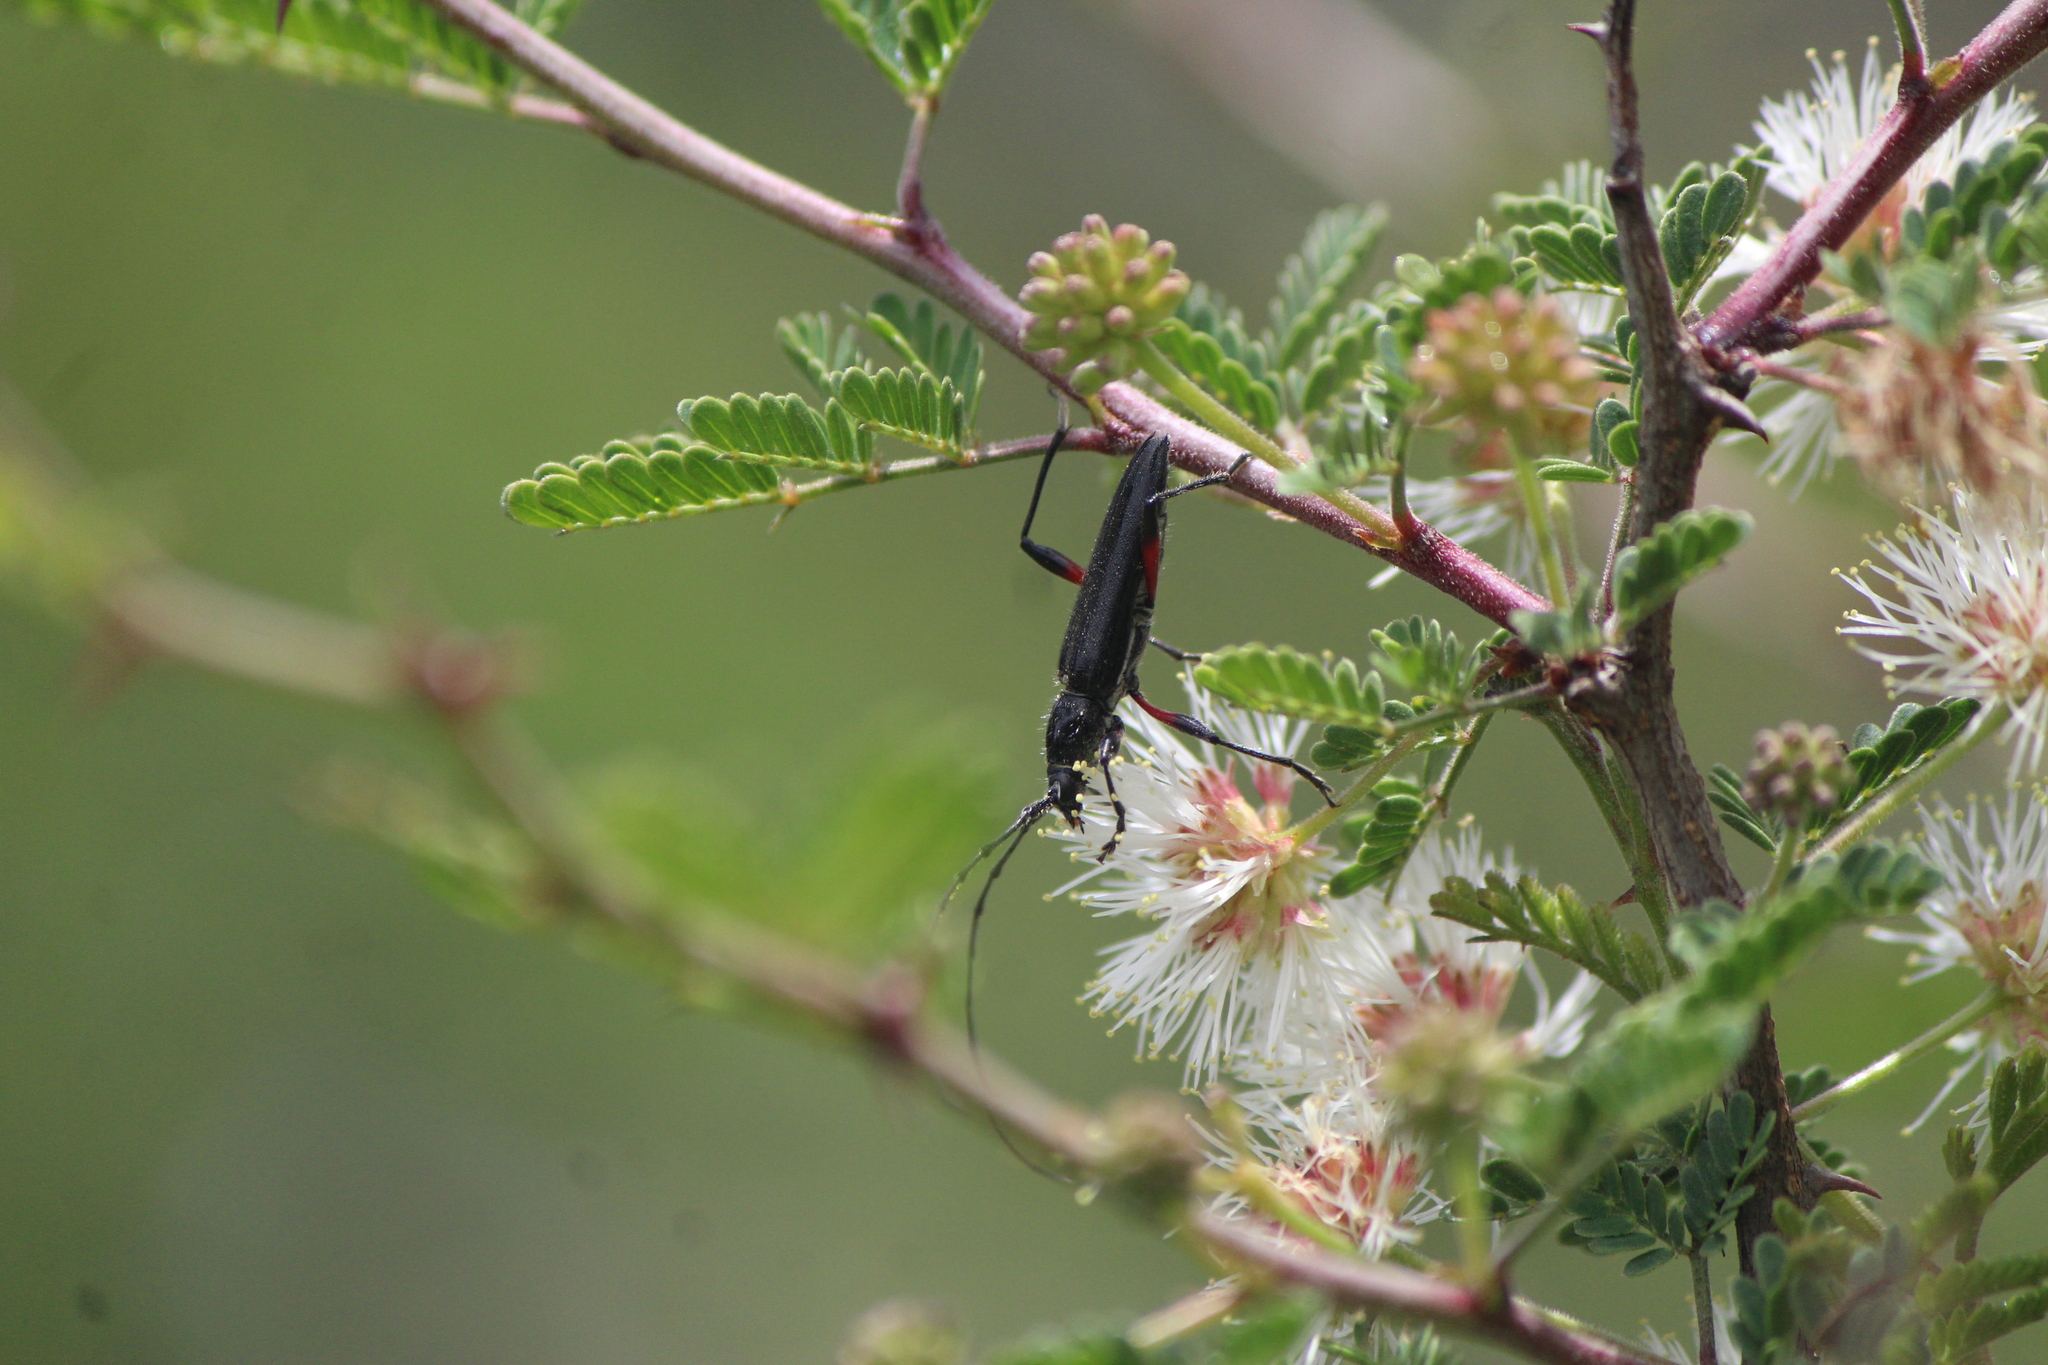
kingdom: Animalia
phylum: Arthropoda
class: Insecta
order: Coleoptera
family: Cerambycidae
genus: Stenosphenus
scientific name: Stenosphenus sobrius
